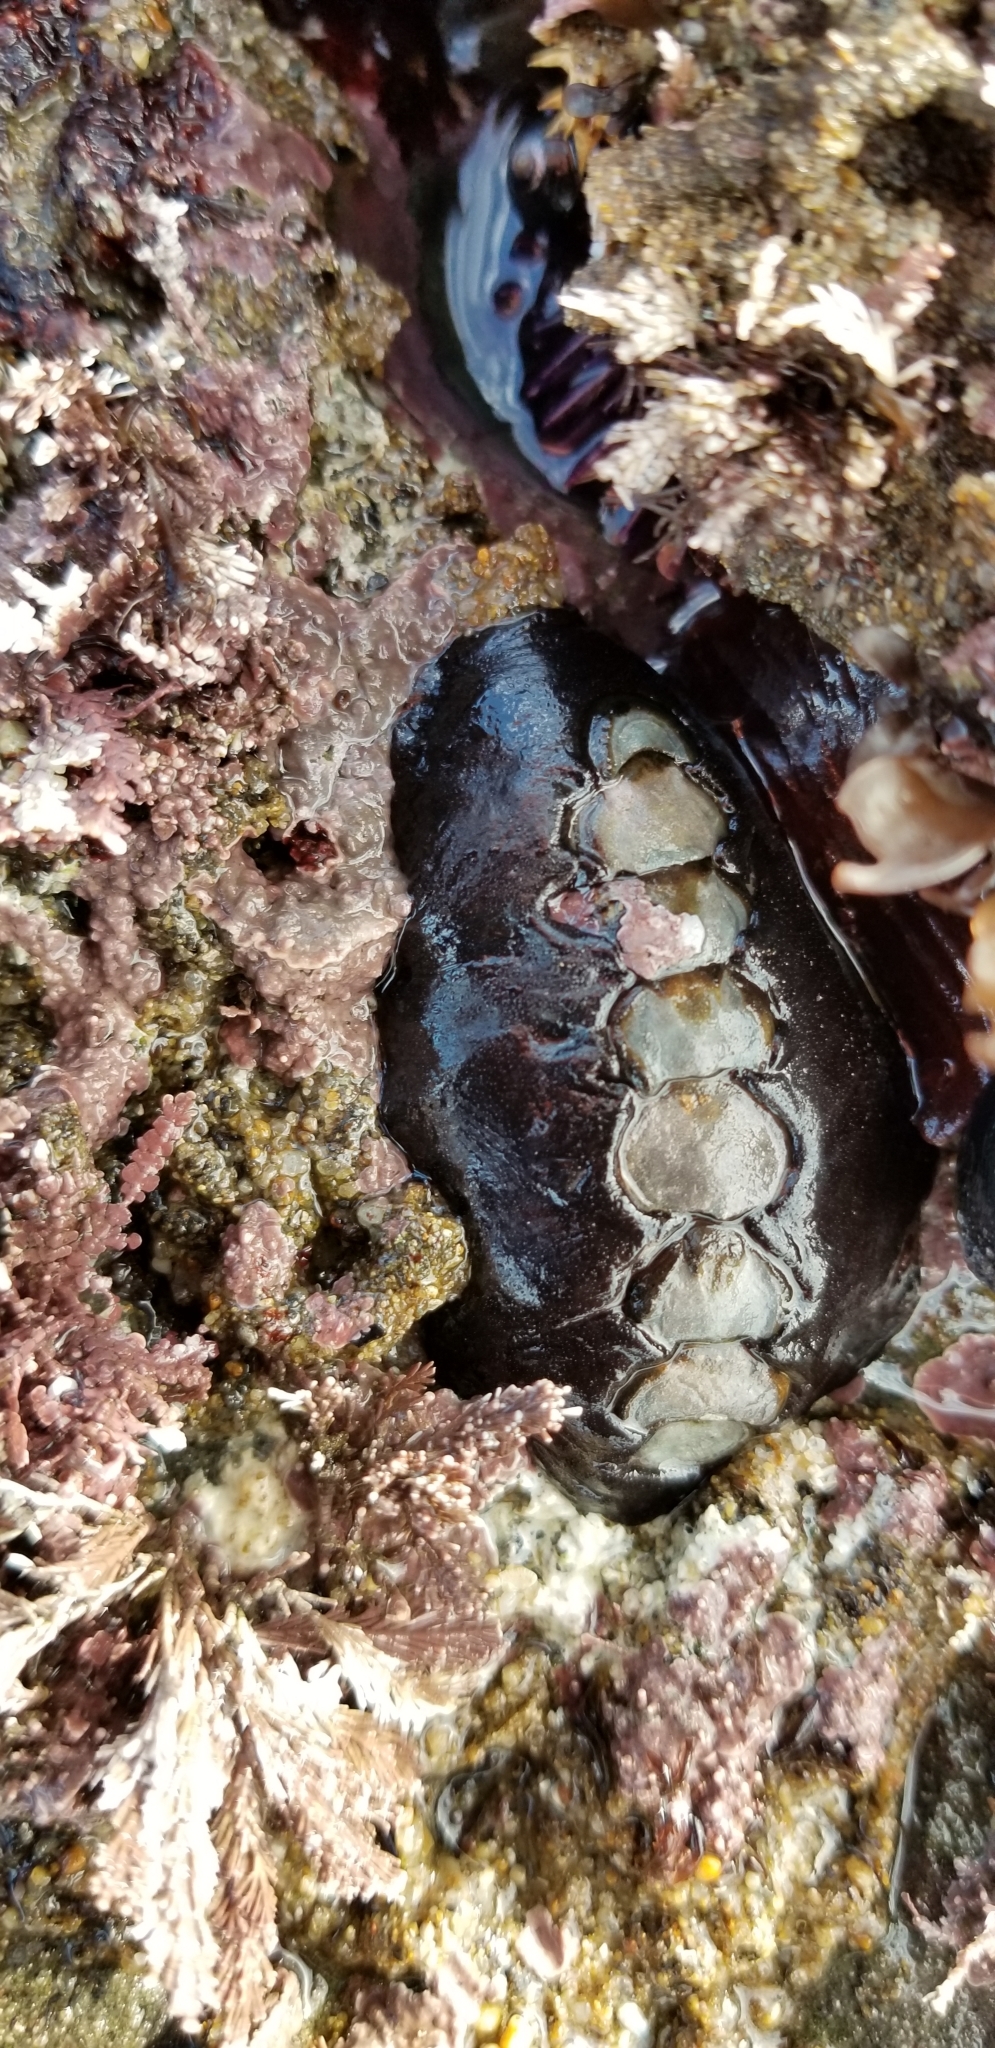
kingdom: Animalia
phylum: Mollusca
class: Polyplacophora
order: Chitonida
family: Mopaliidae
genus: Katharina
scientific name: Katharina tunicata
